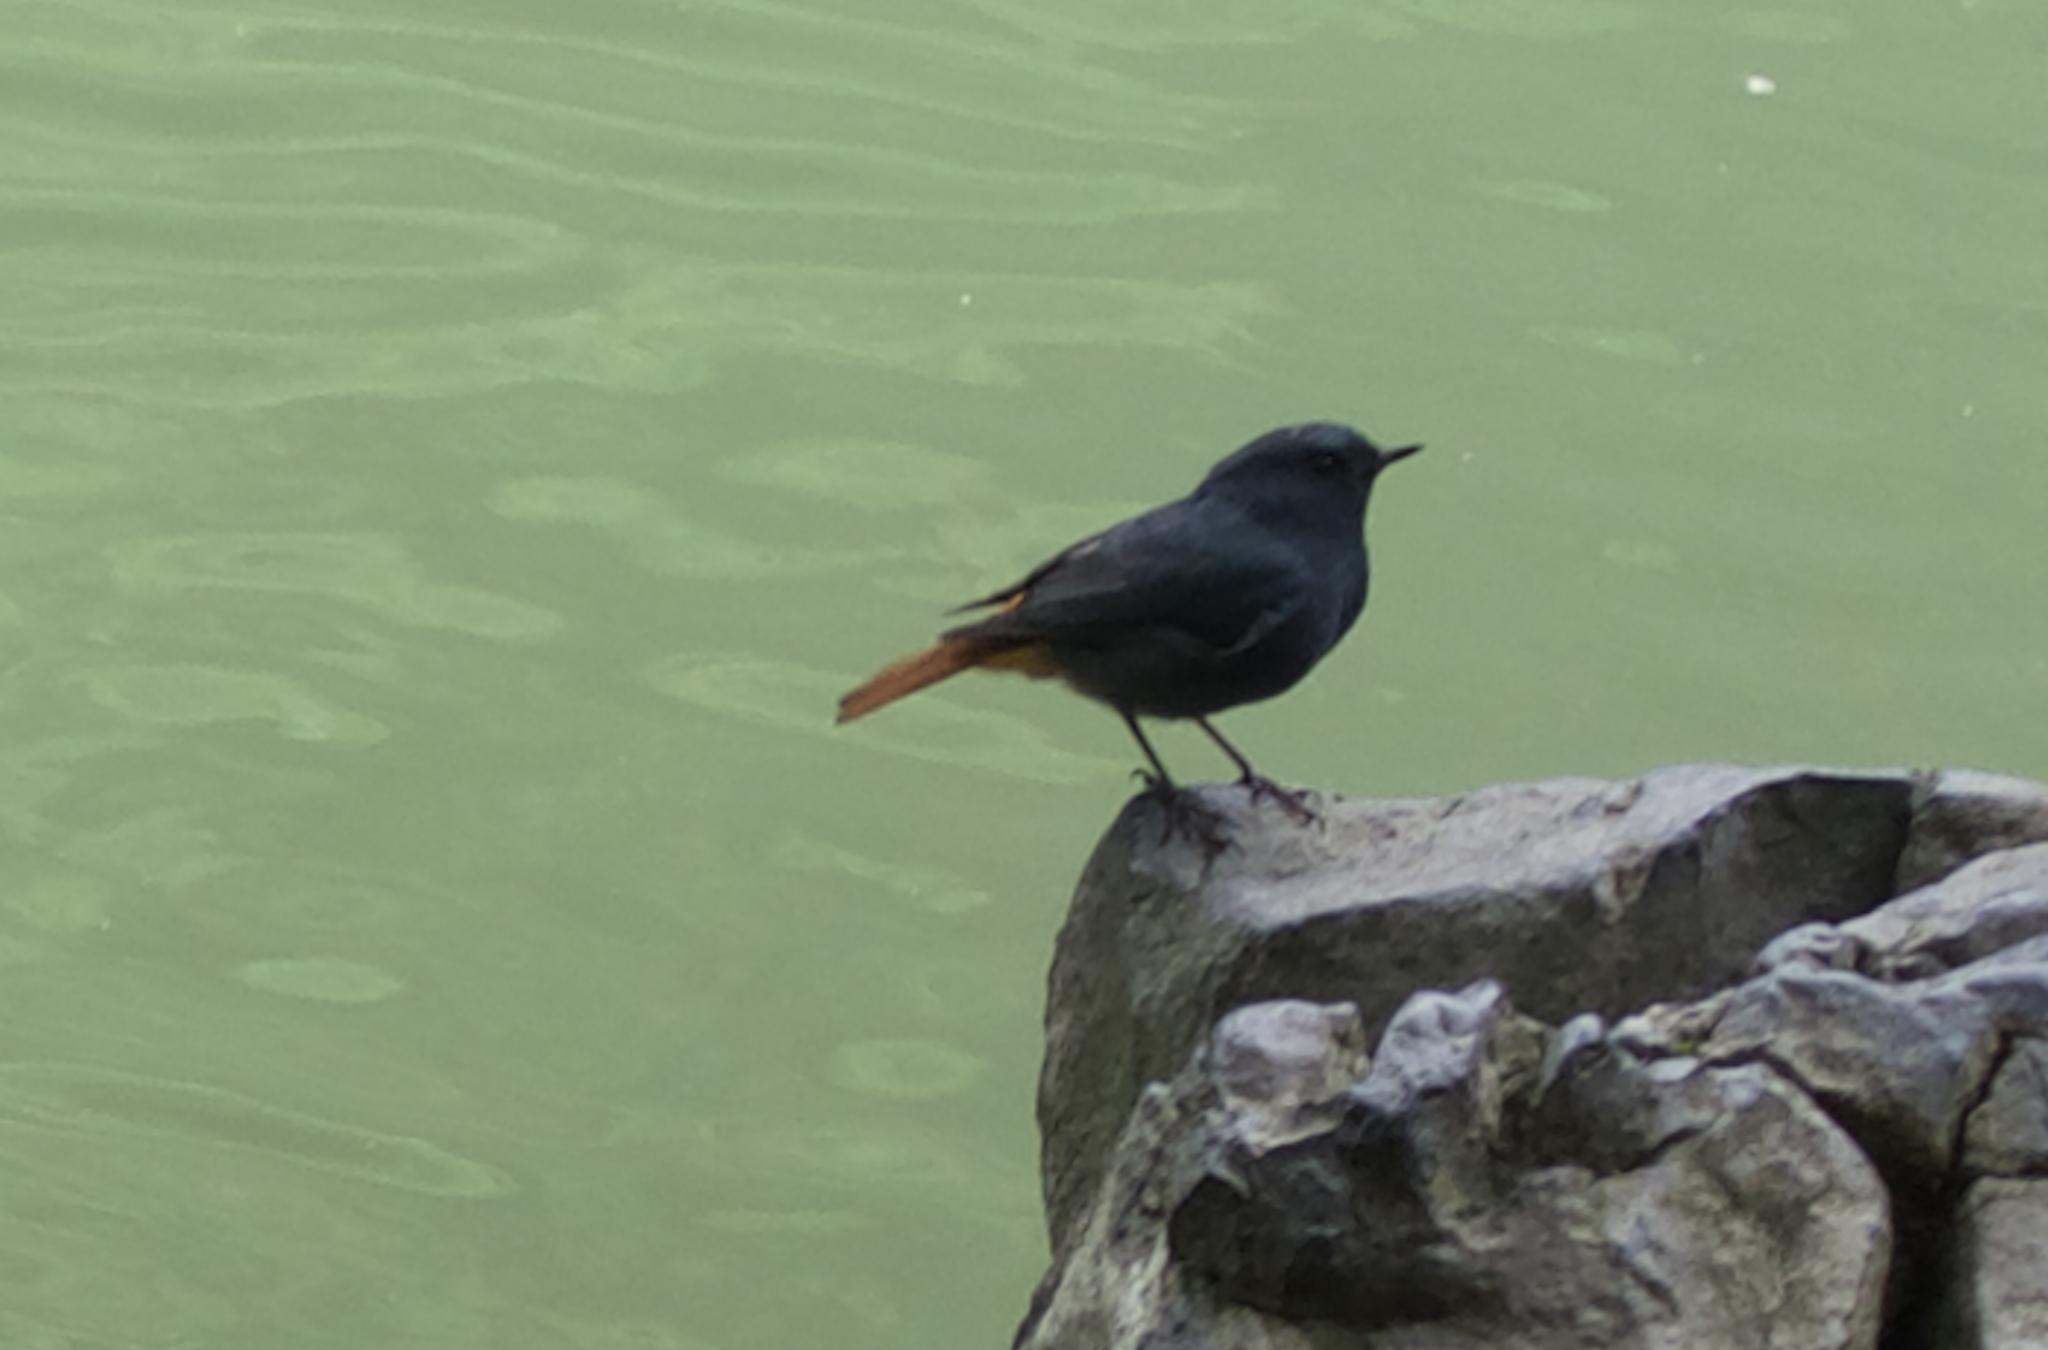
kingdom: Animalia
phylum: Chordata
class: Aves
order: Passeriformes
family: Muscicapidae
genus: Phoenicurus
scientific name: Phoenicurus fuliginosus
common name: Plumbeous water redstart
